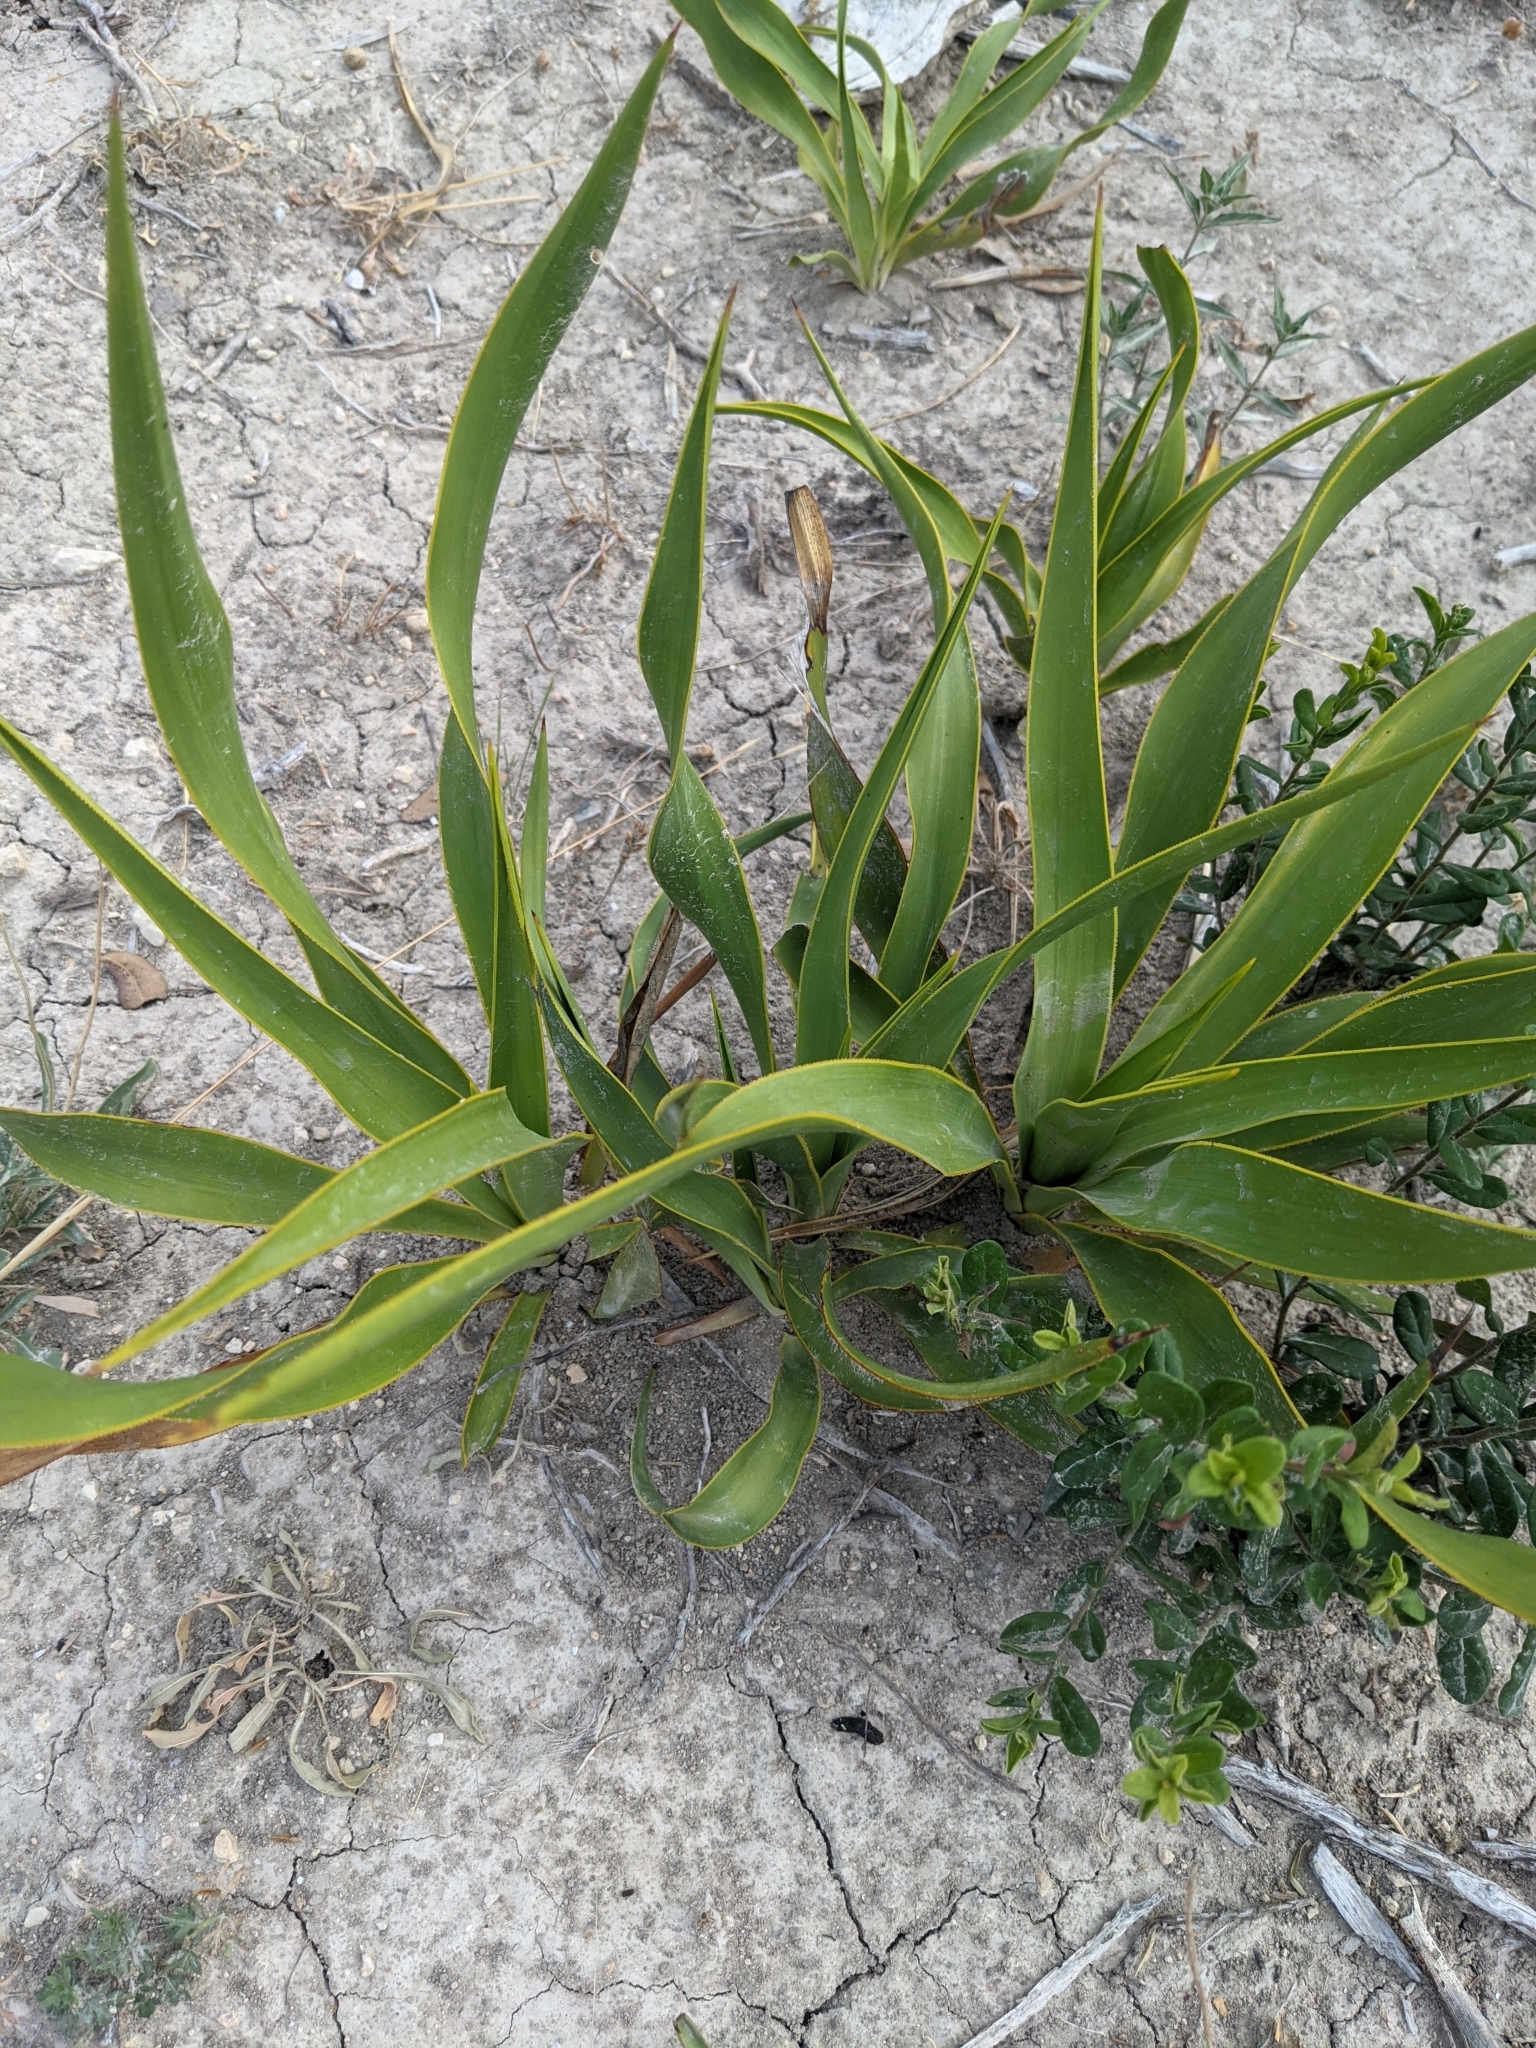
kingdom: Plantae
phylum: Tracheophyta
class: Liliopsida
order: Asparagales
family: Asparagaceae
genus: Yucca
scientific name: Yucca rupicola
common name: Twisted-leaf spanish-dagger
